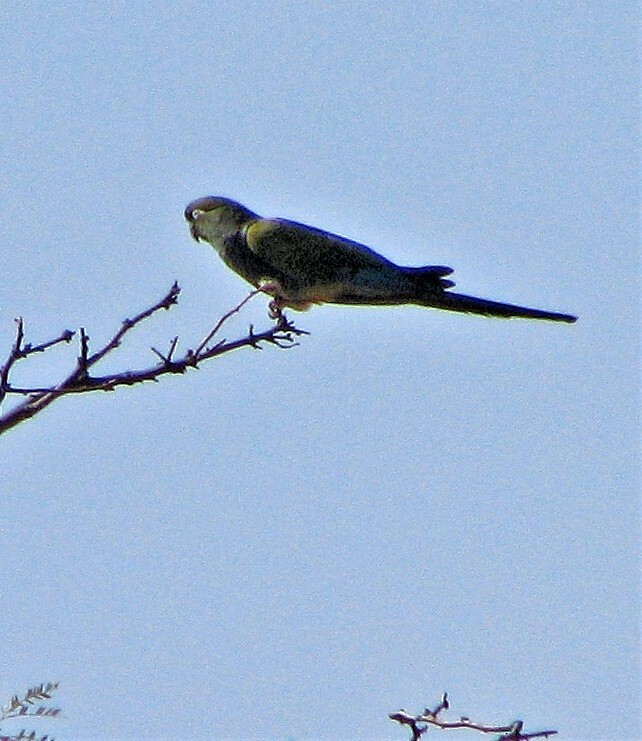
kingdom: Animalia
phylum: Chordata
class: Aves
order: Psittaciformes
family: Psittacidae
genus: Cyanoliseus
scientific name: Cyanoliseus patagonus
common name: Burrowing parrot
